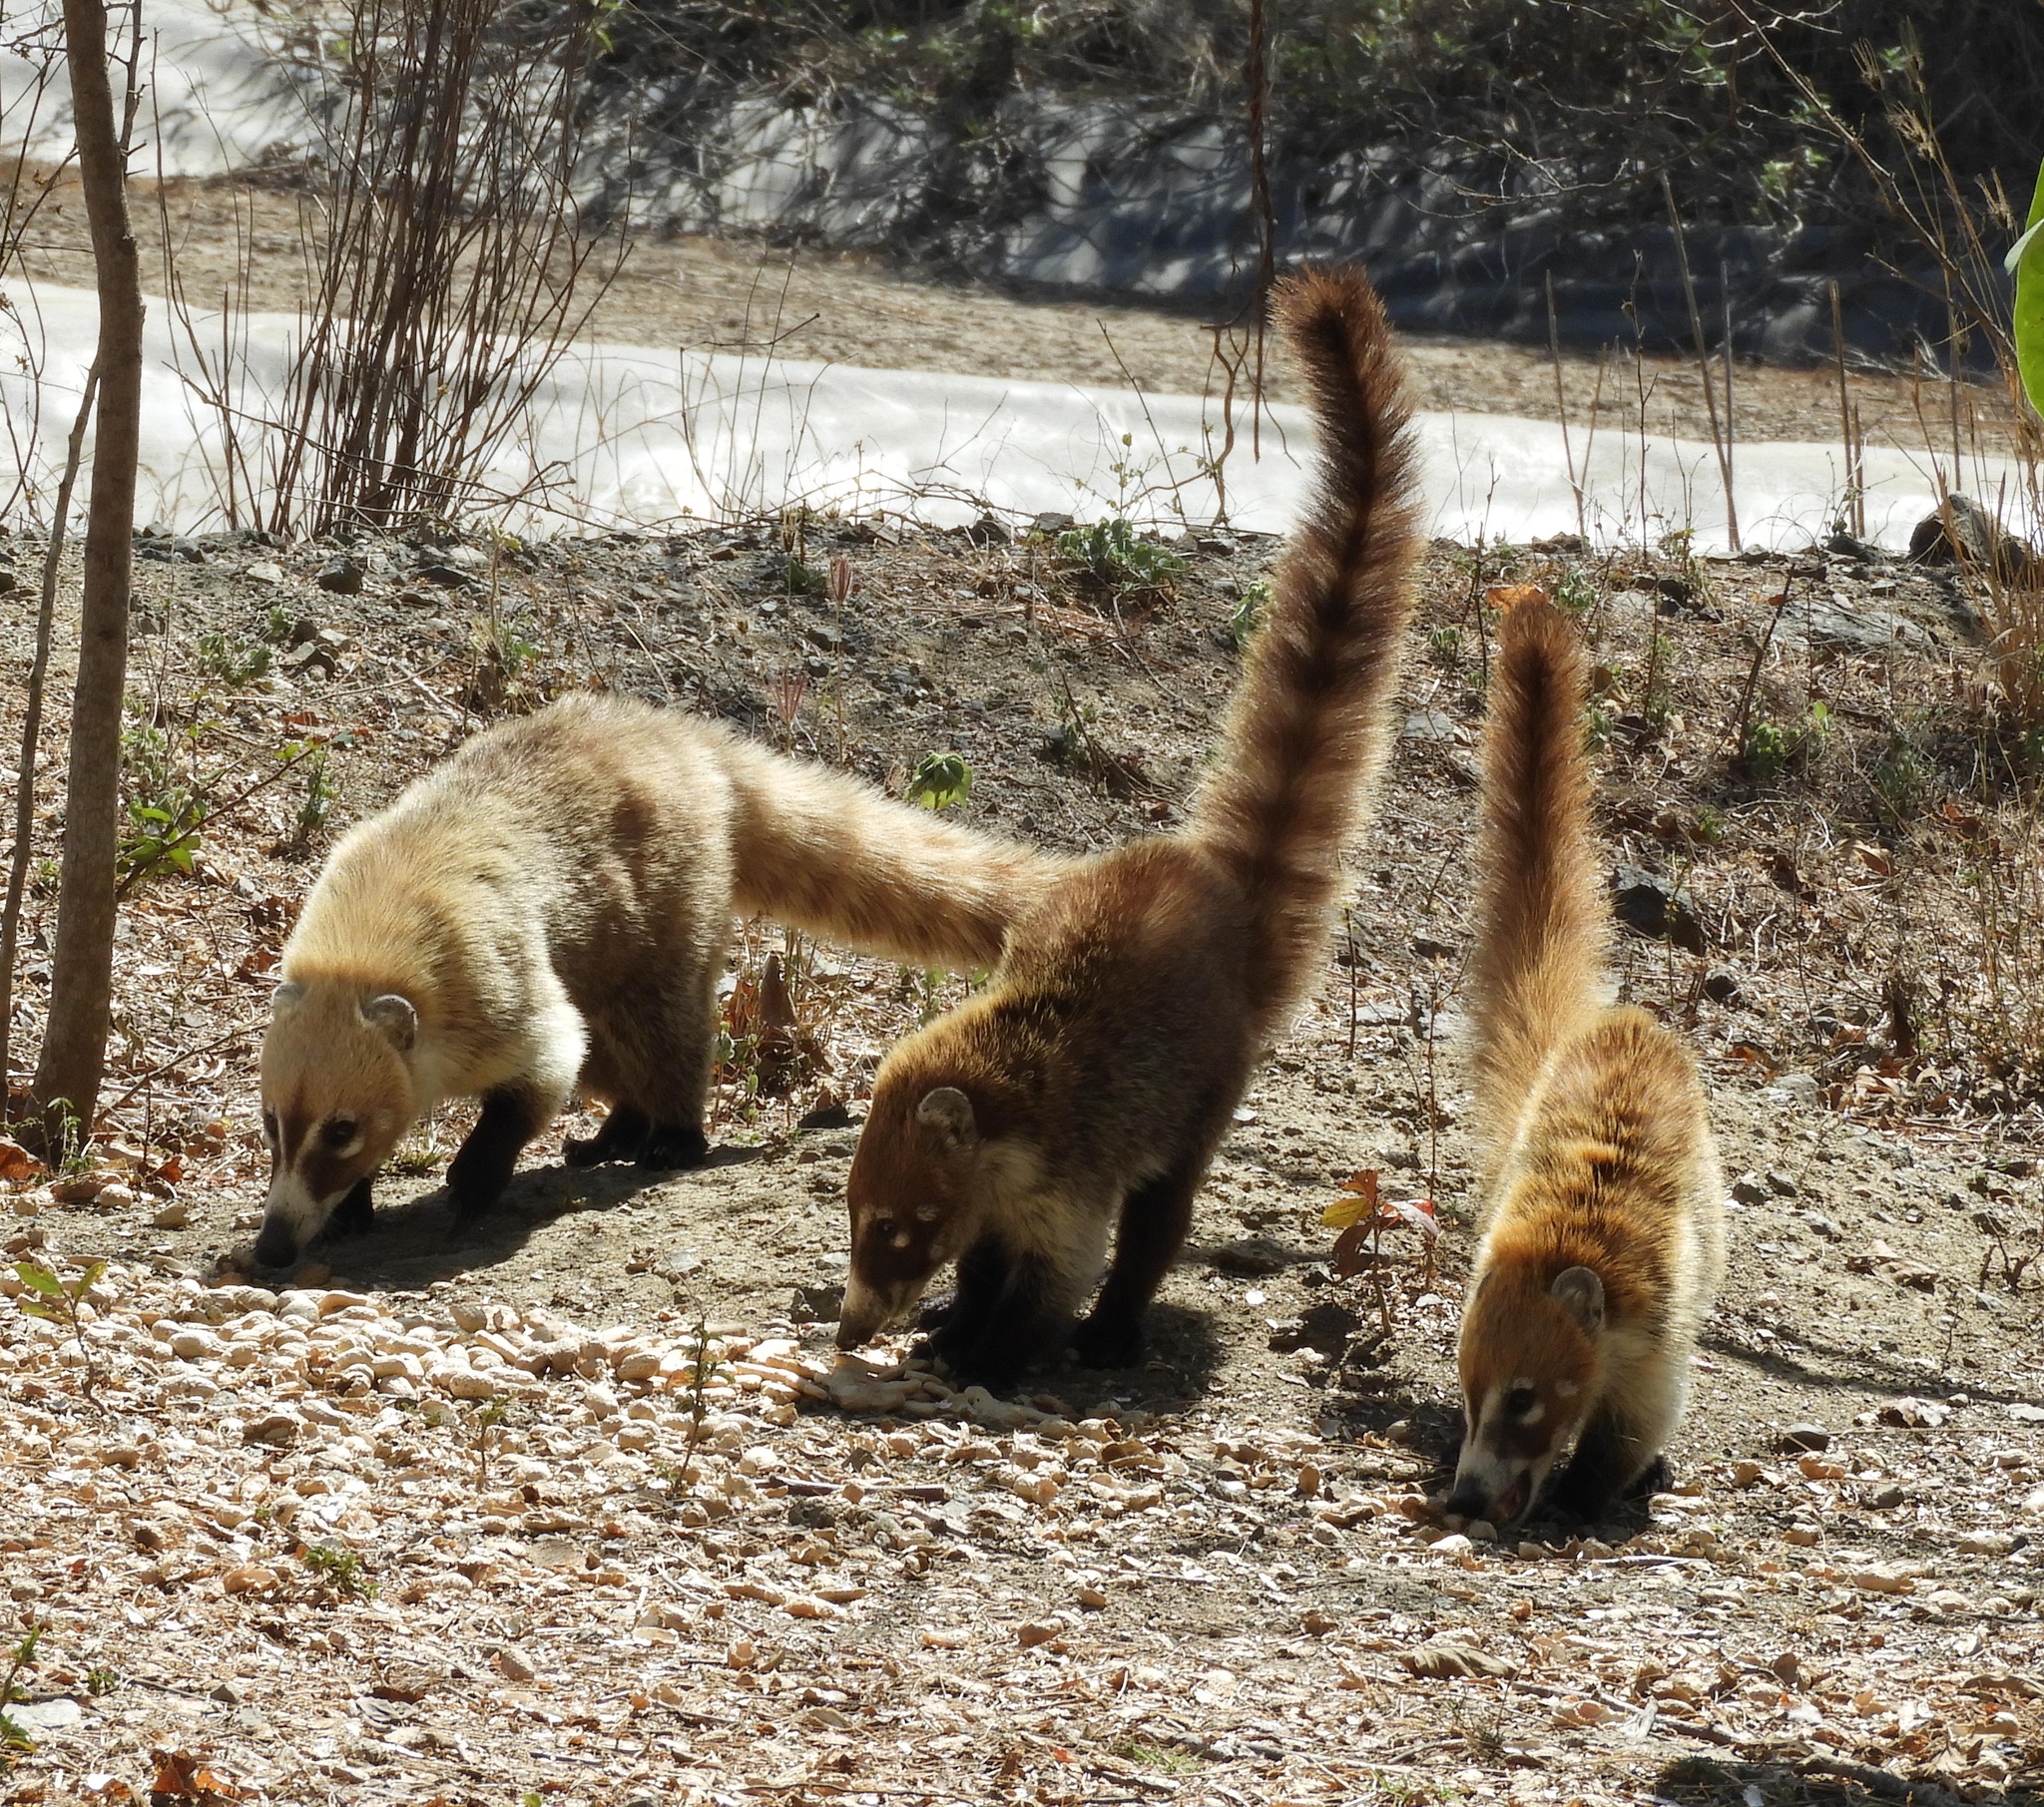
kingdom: Animalia
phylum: Chordata
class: Mammalia
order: Carnivora
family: Procyonidae
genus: Nasua
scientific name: Nasua narica
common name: White-nosed coati
